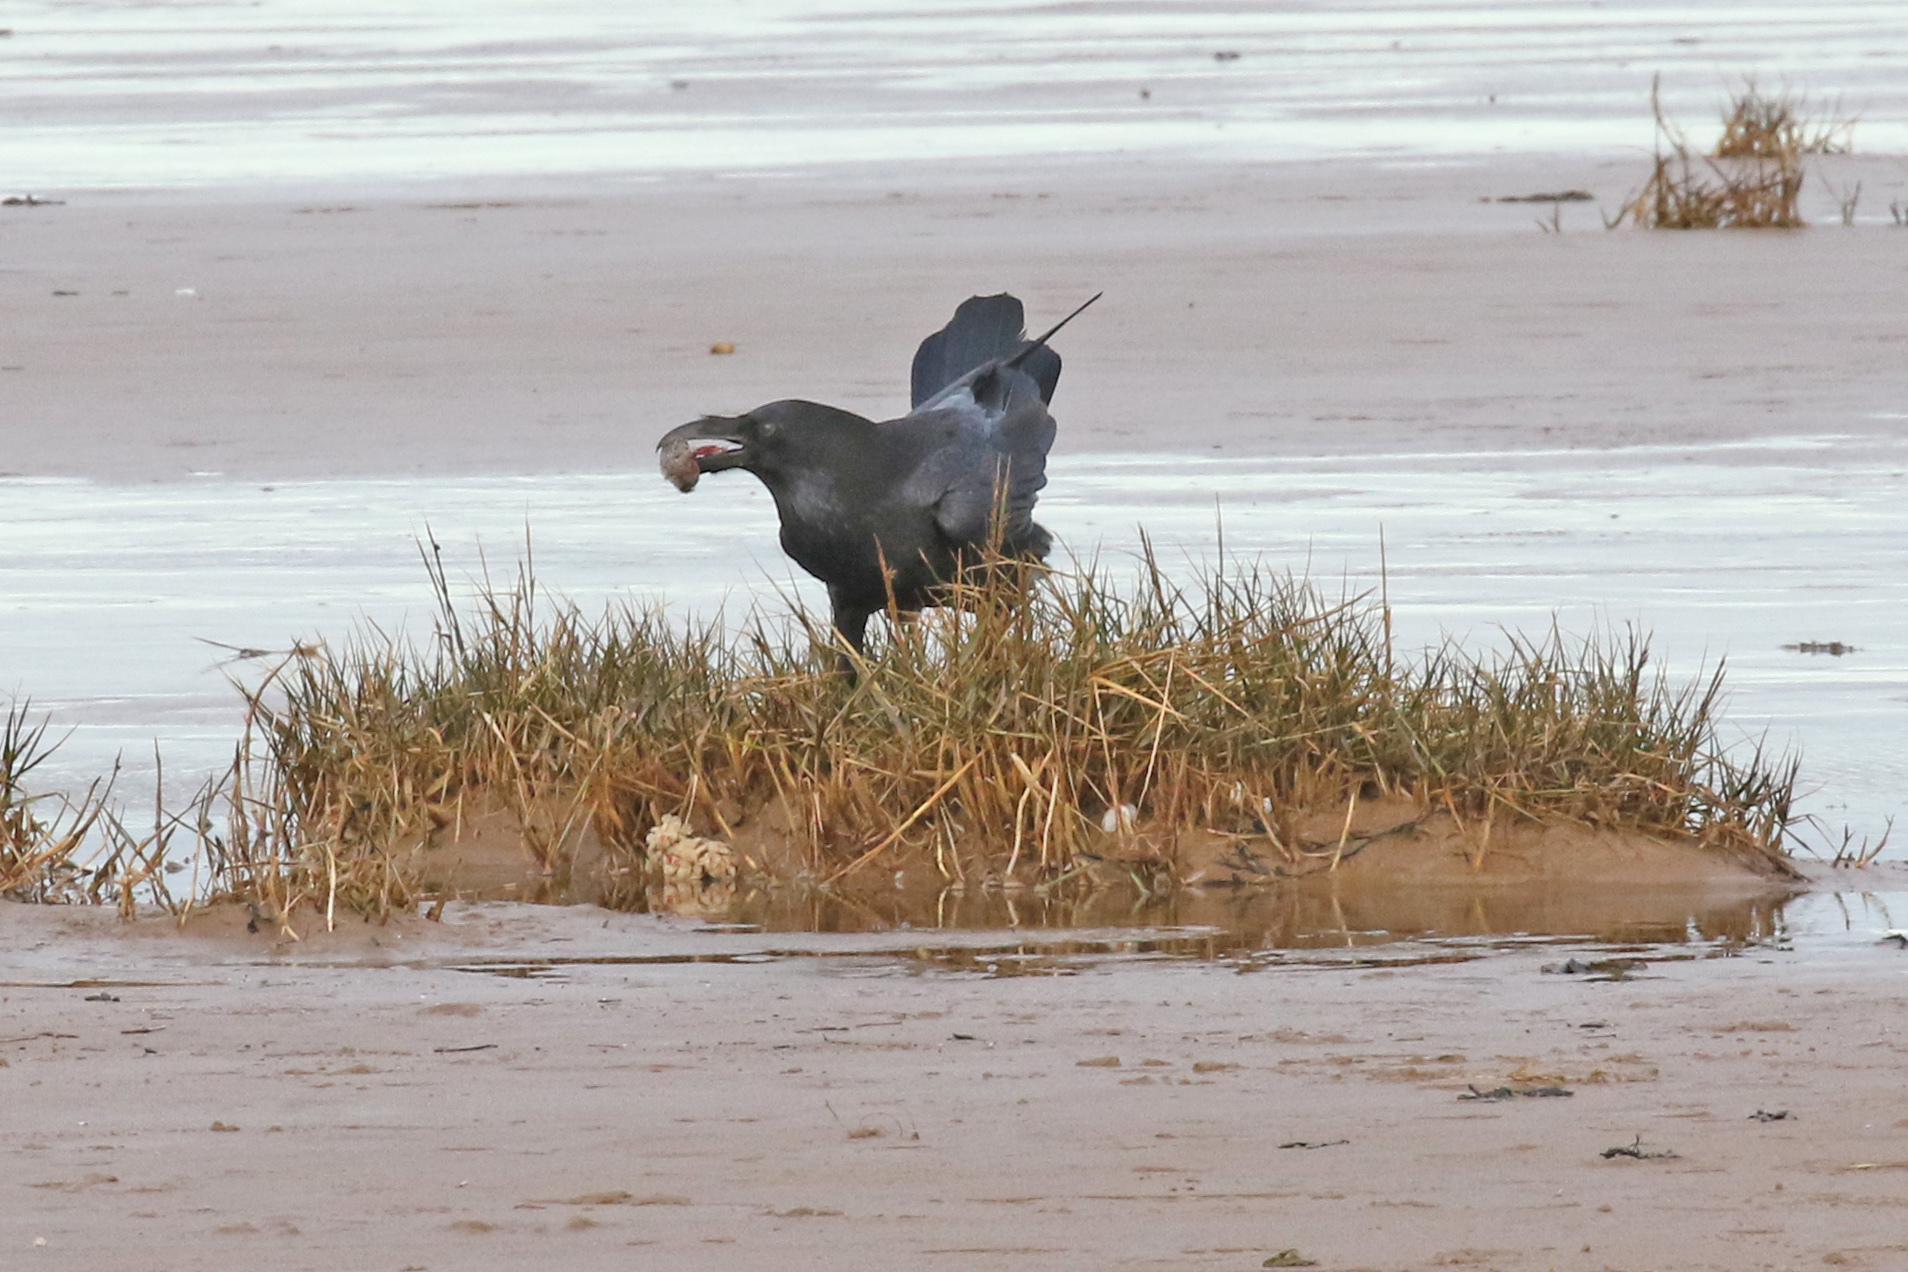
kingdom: Animalia
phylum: Chordata
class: Aves
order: Passeriformes
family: Corvidae
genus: Corvus
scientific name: Corvus corax
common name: Common raven
